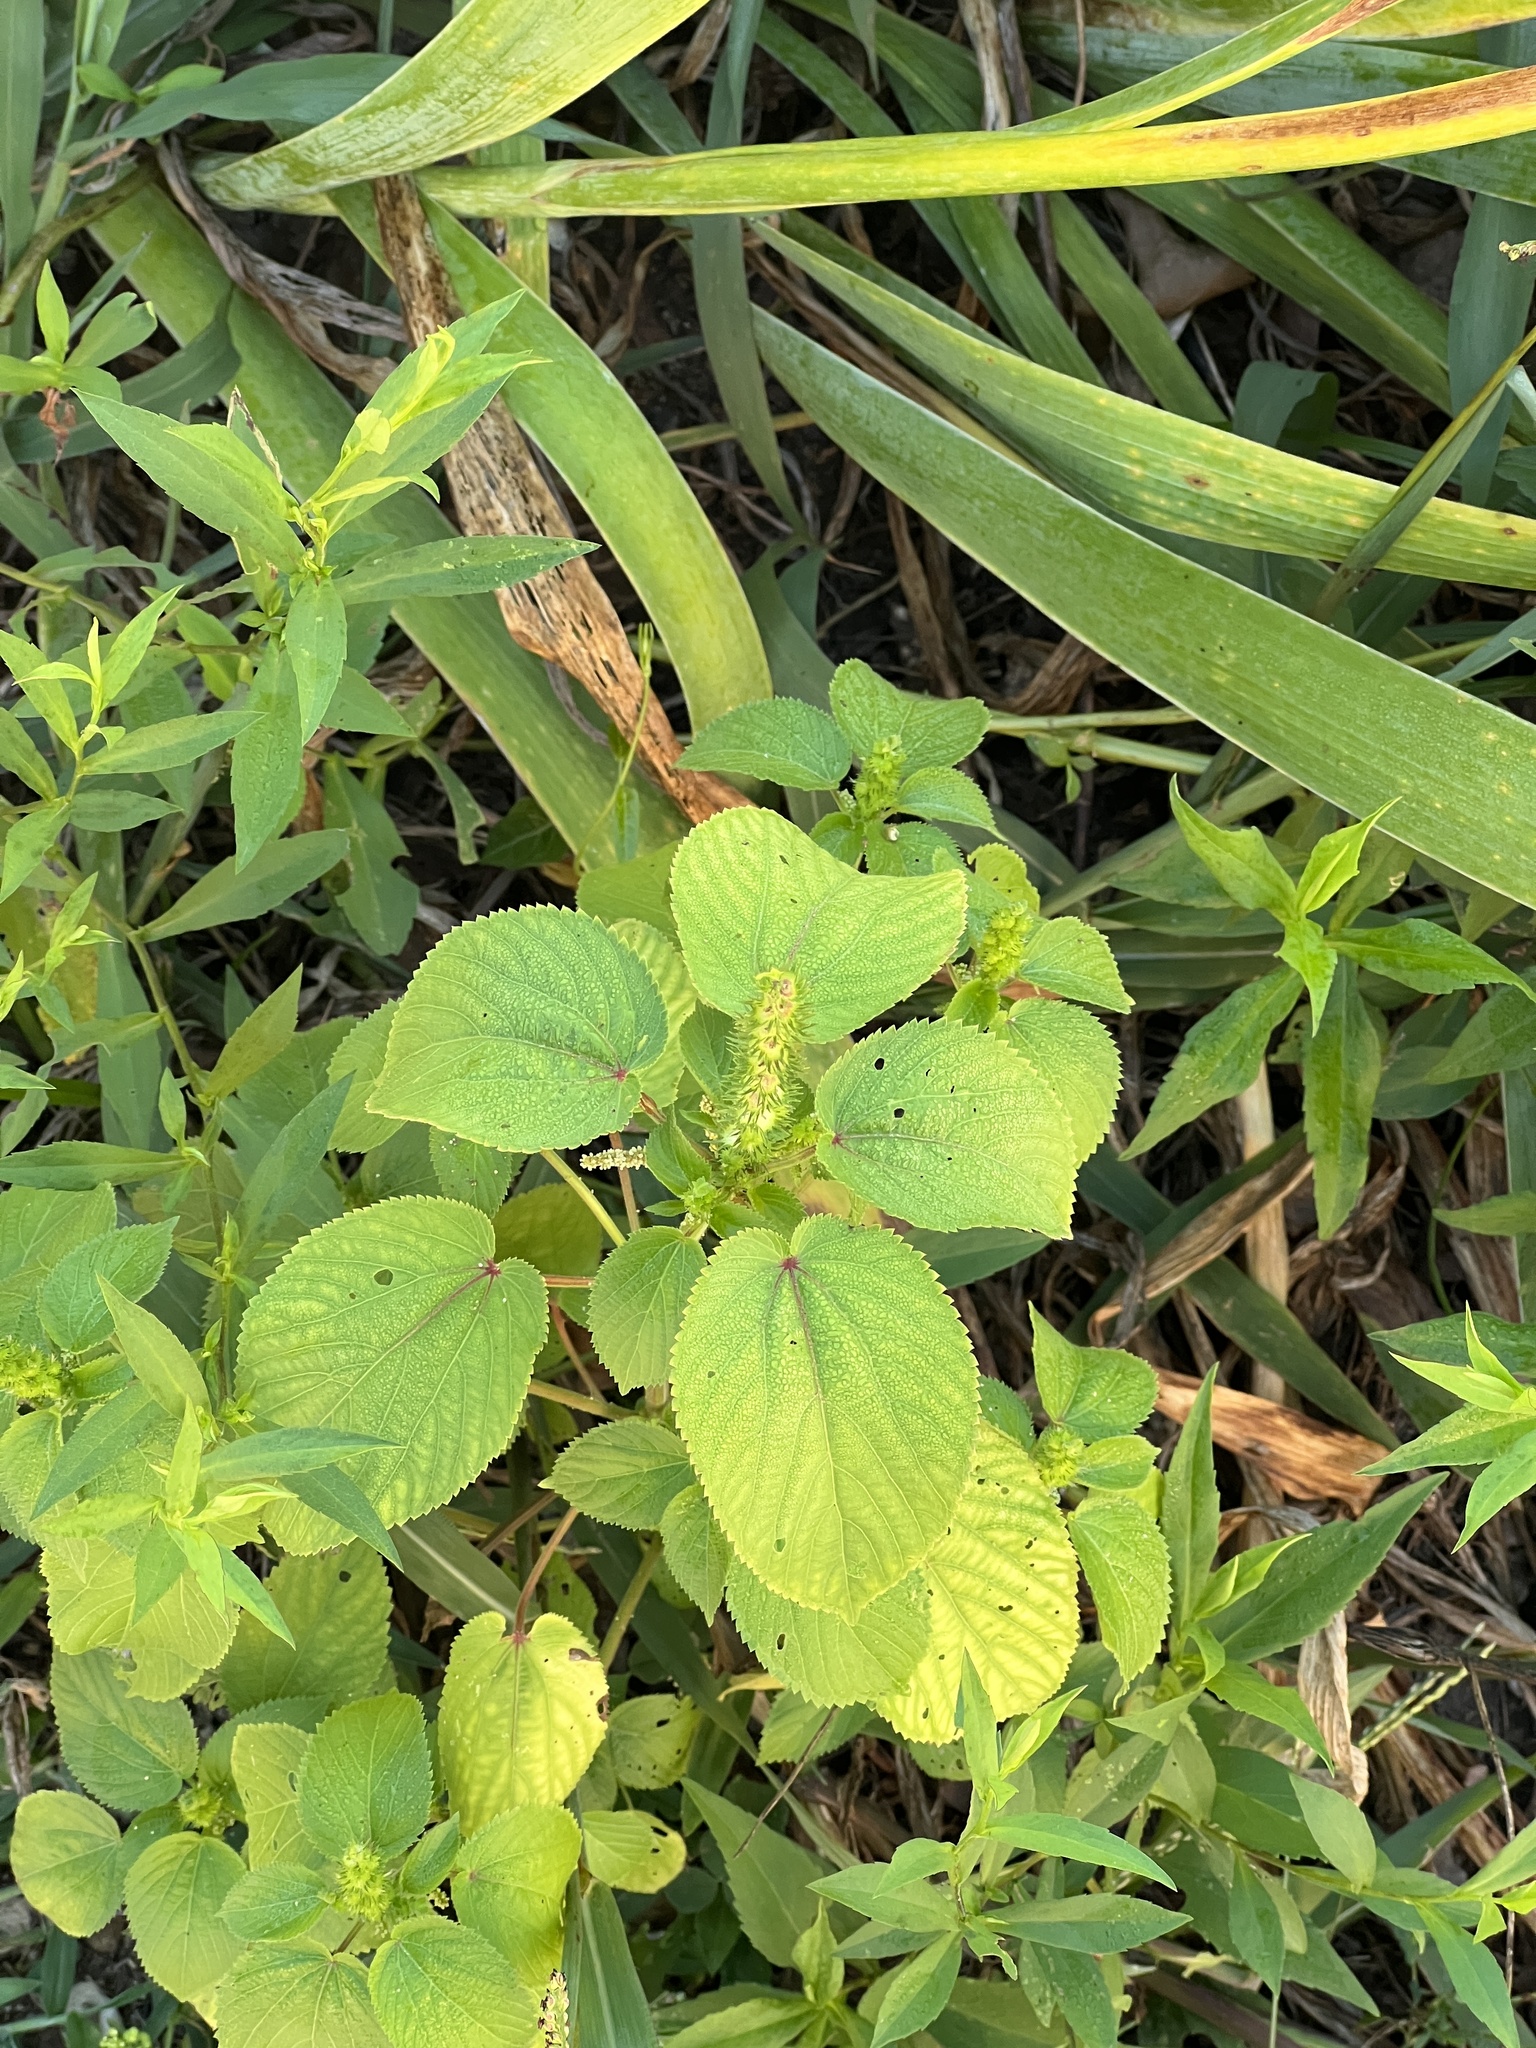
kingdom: Plantae
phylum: Tracheophyta
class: Magnoliopsida
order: Malpighiales
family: Euphorbiaceae
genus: Acalypha
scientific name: Acalypha ostryifolia
